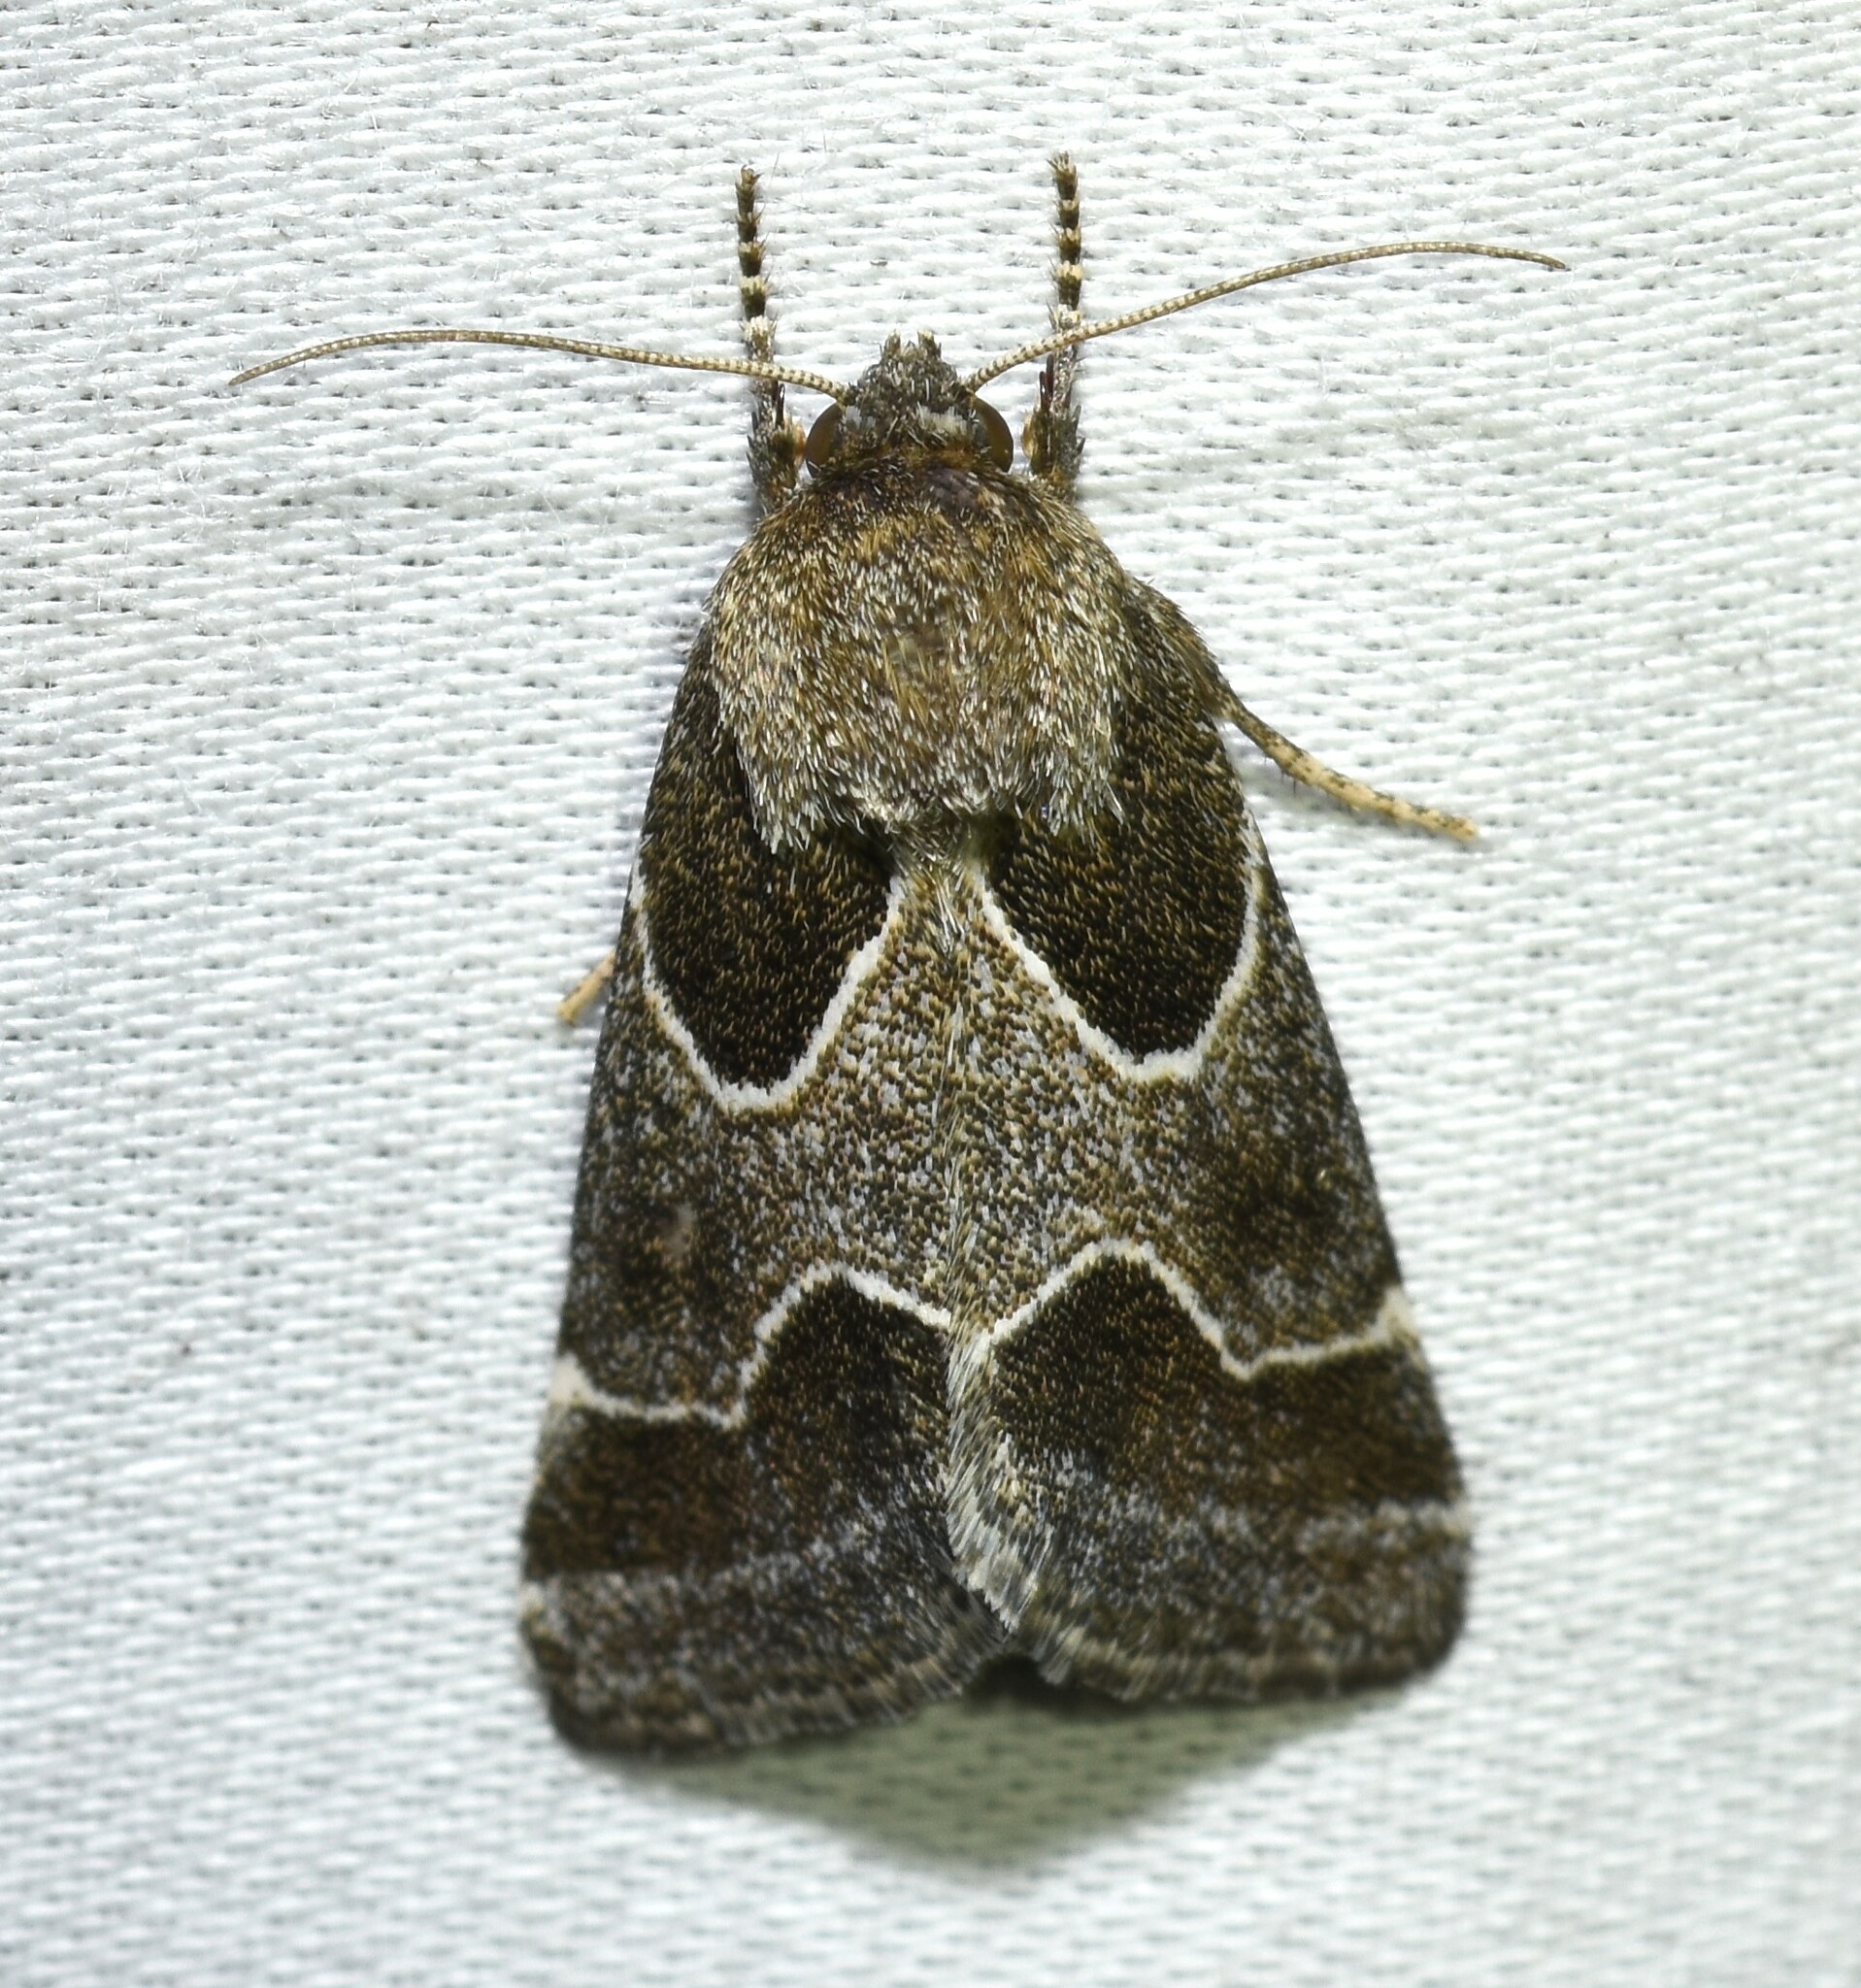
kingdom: Animalia
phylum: Arthropoda
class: Insecta
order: Lepidoptera
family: Noctuidae
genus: Schinia
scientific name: Schinia rivulosa
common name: Scarce meal-moth
